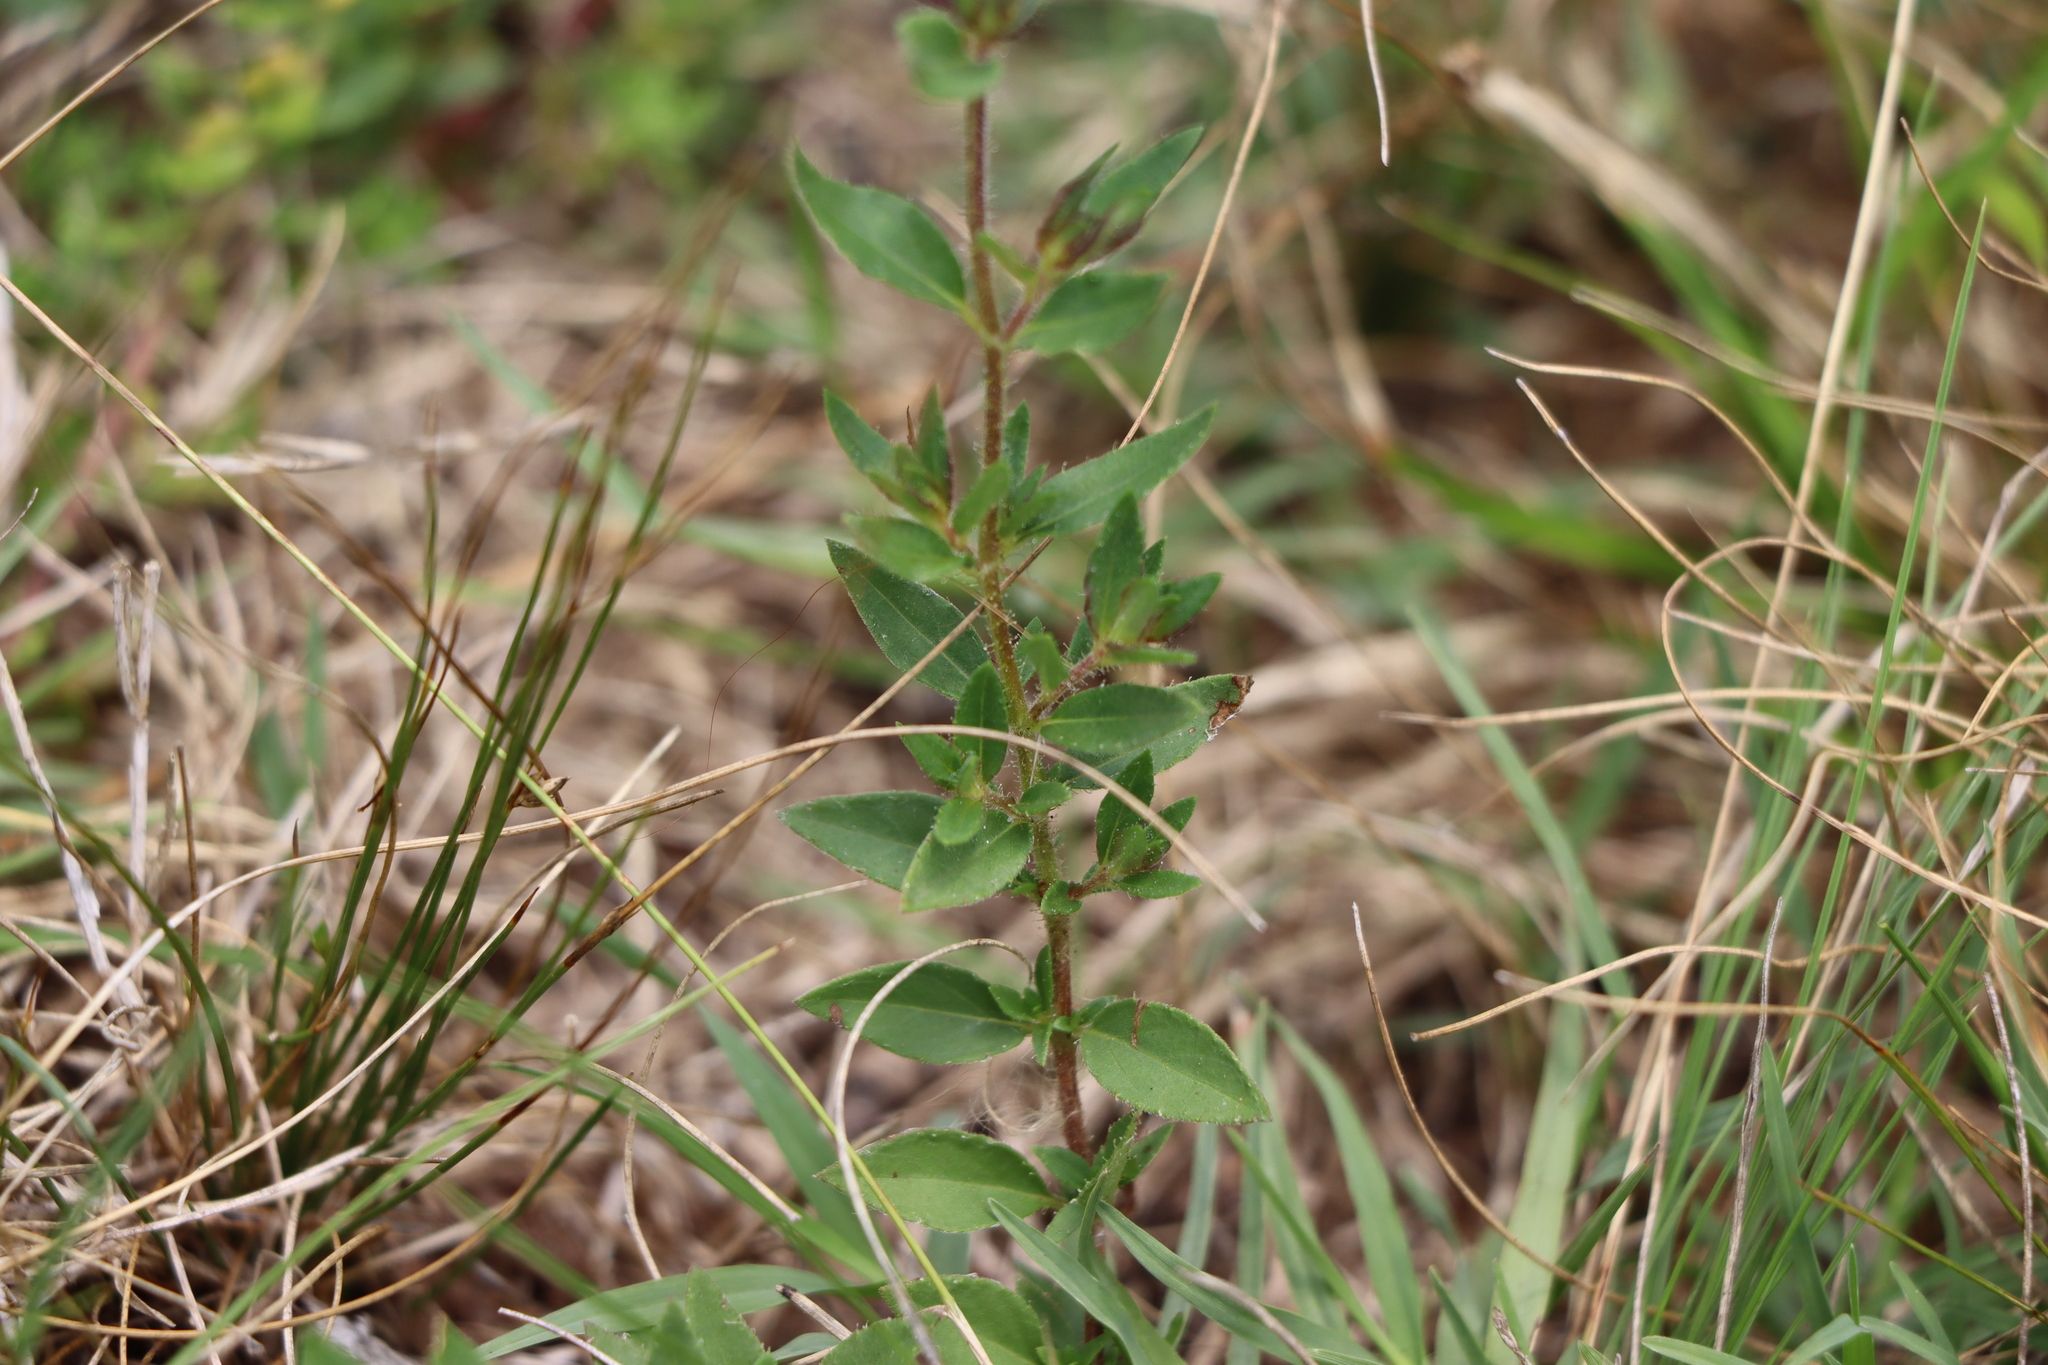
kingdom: Plantae
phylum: Tracheophyta
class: Magnoliopsida
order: Myrtales
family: Lythraceae
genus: Cuphea
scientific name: Cuphea glutinosa
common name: Sticky waxweed
